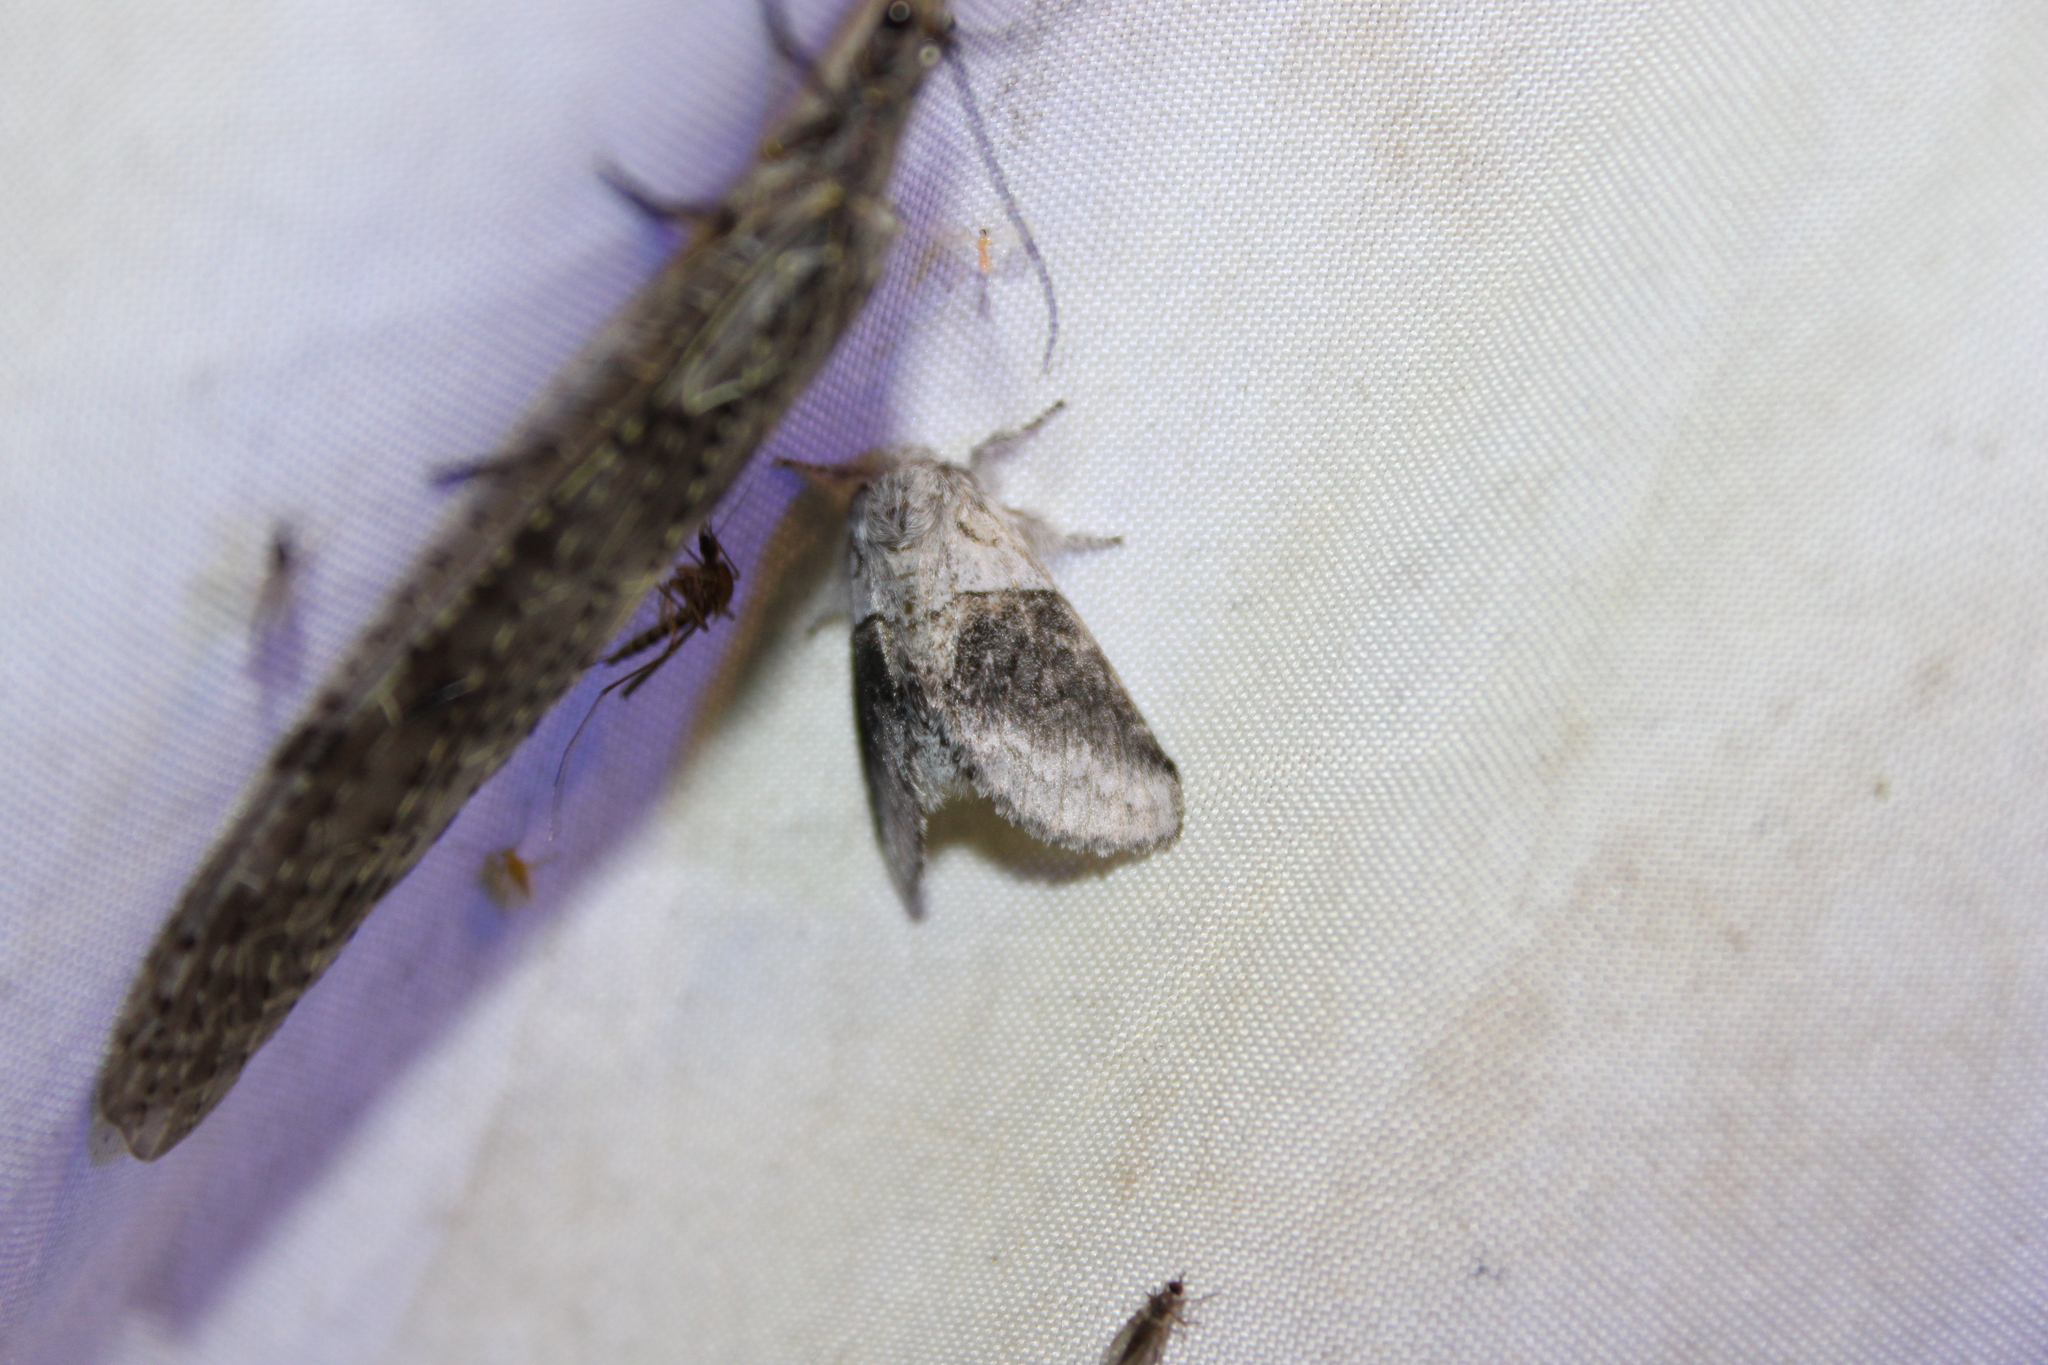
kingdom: Animalia
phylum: Arthropoda
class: Insecta
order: Lepidoptera
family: Notodontidae
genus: Gluphisia
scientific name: Gluphisia septentrionis
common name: Common gluphisia
